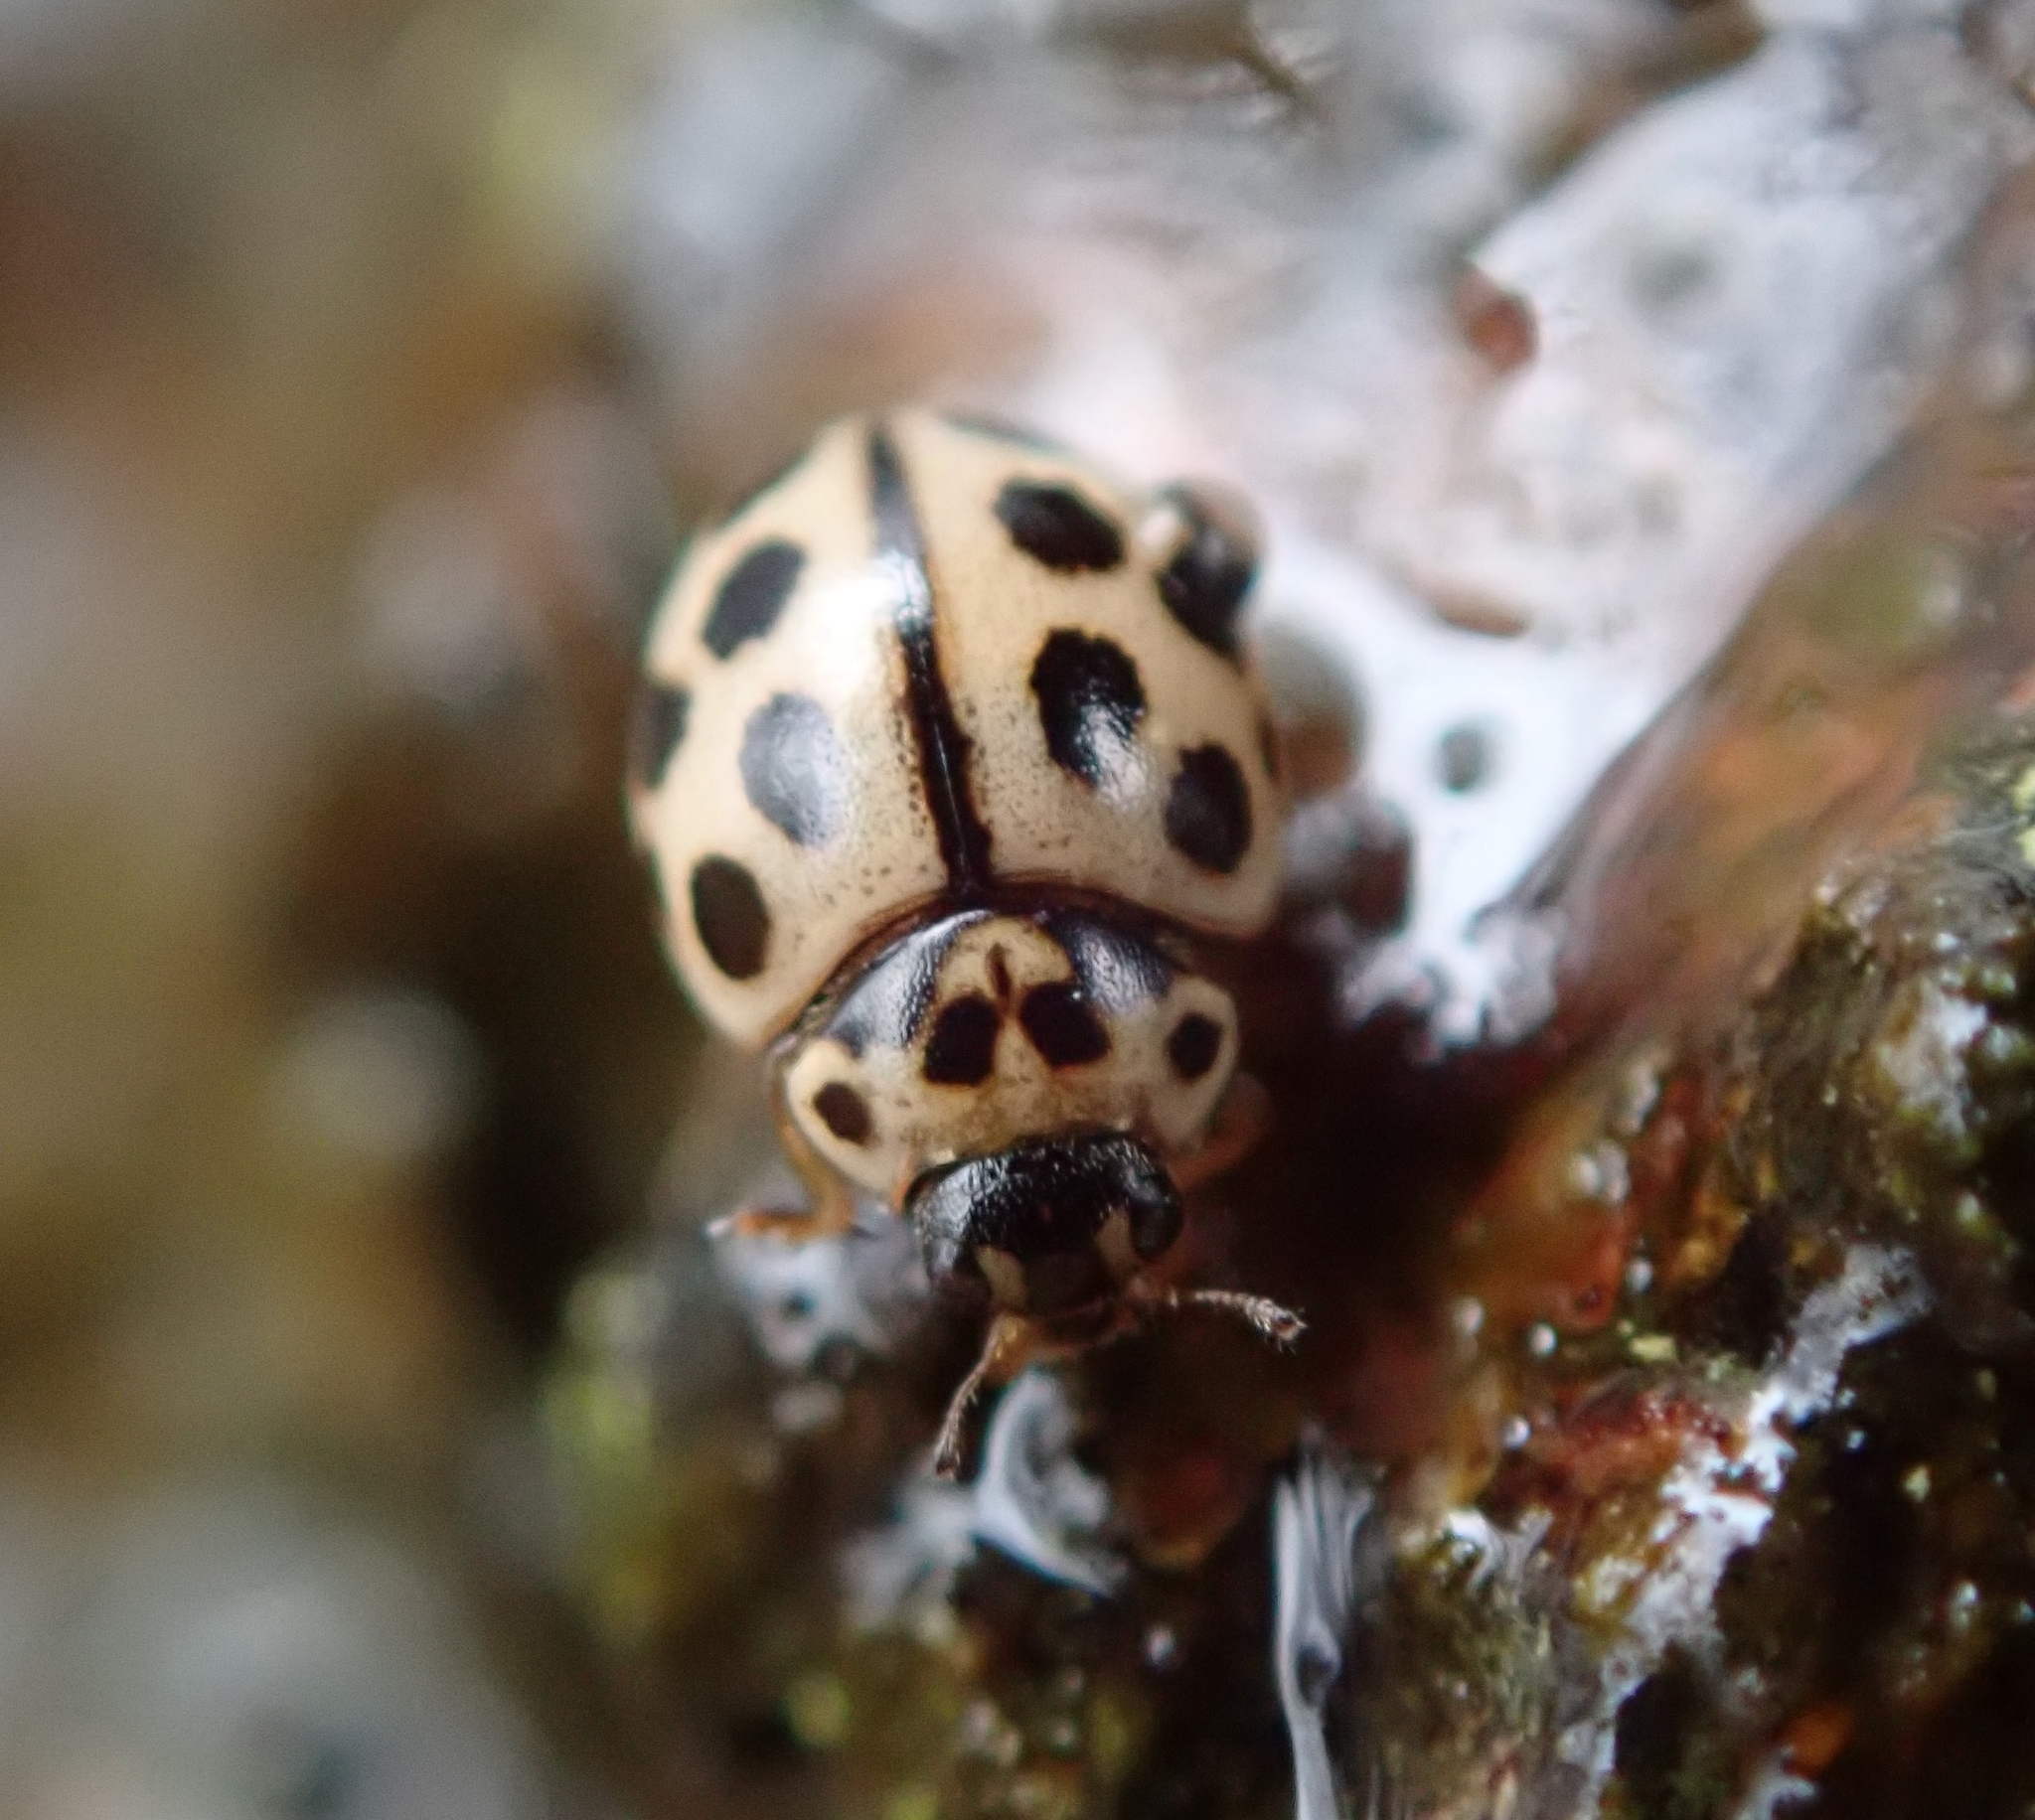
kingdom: Animalia
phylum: Arthropoda
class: Insecta
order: Coleoptera
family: Coccinellidae
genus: Tytthaspis
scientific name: Tytthaspis sedecimpunctata
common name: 16-spot ladybird
